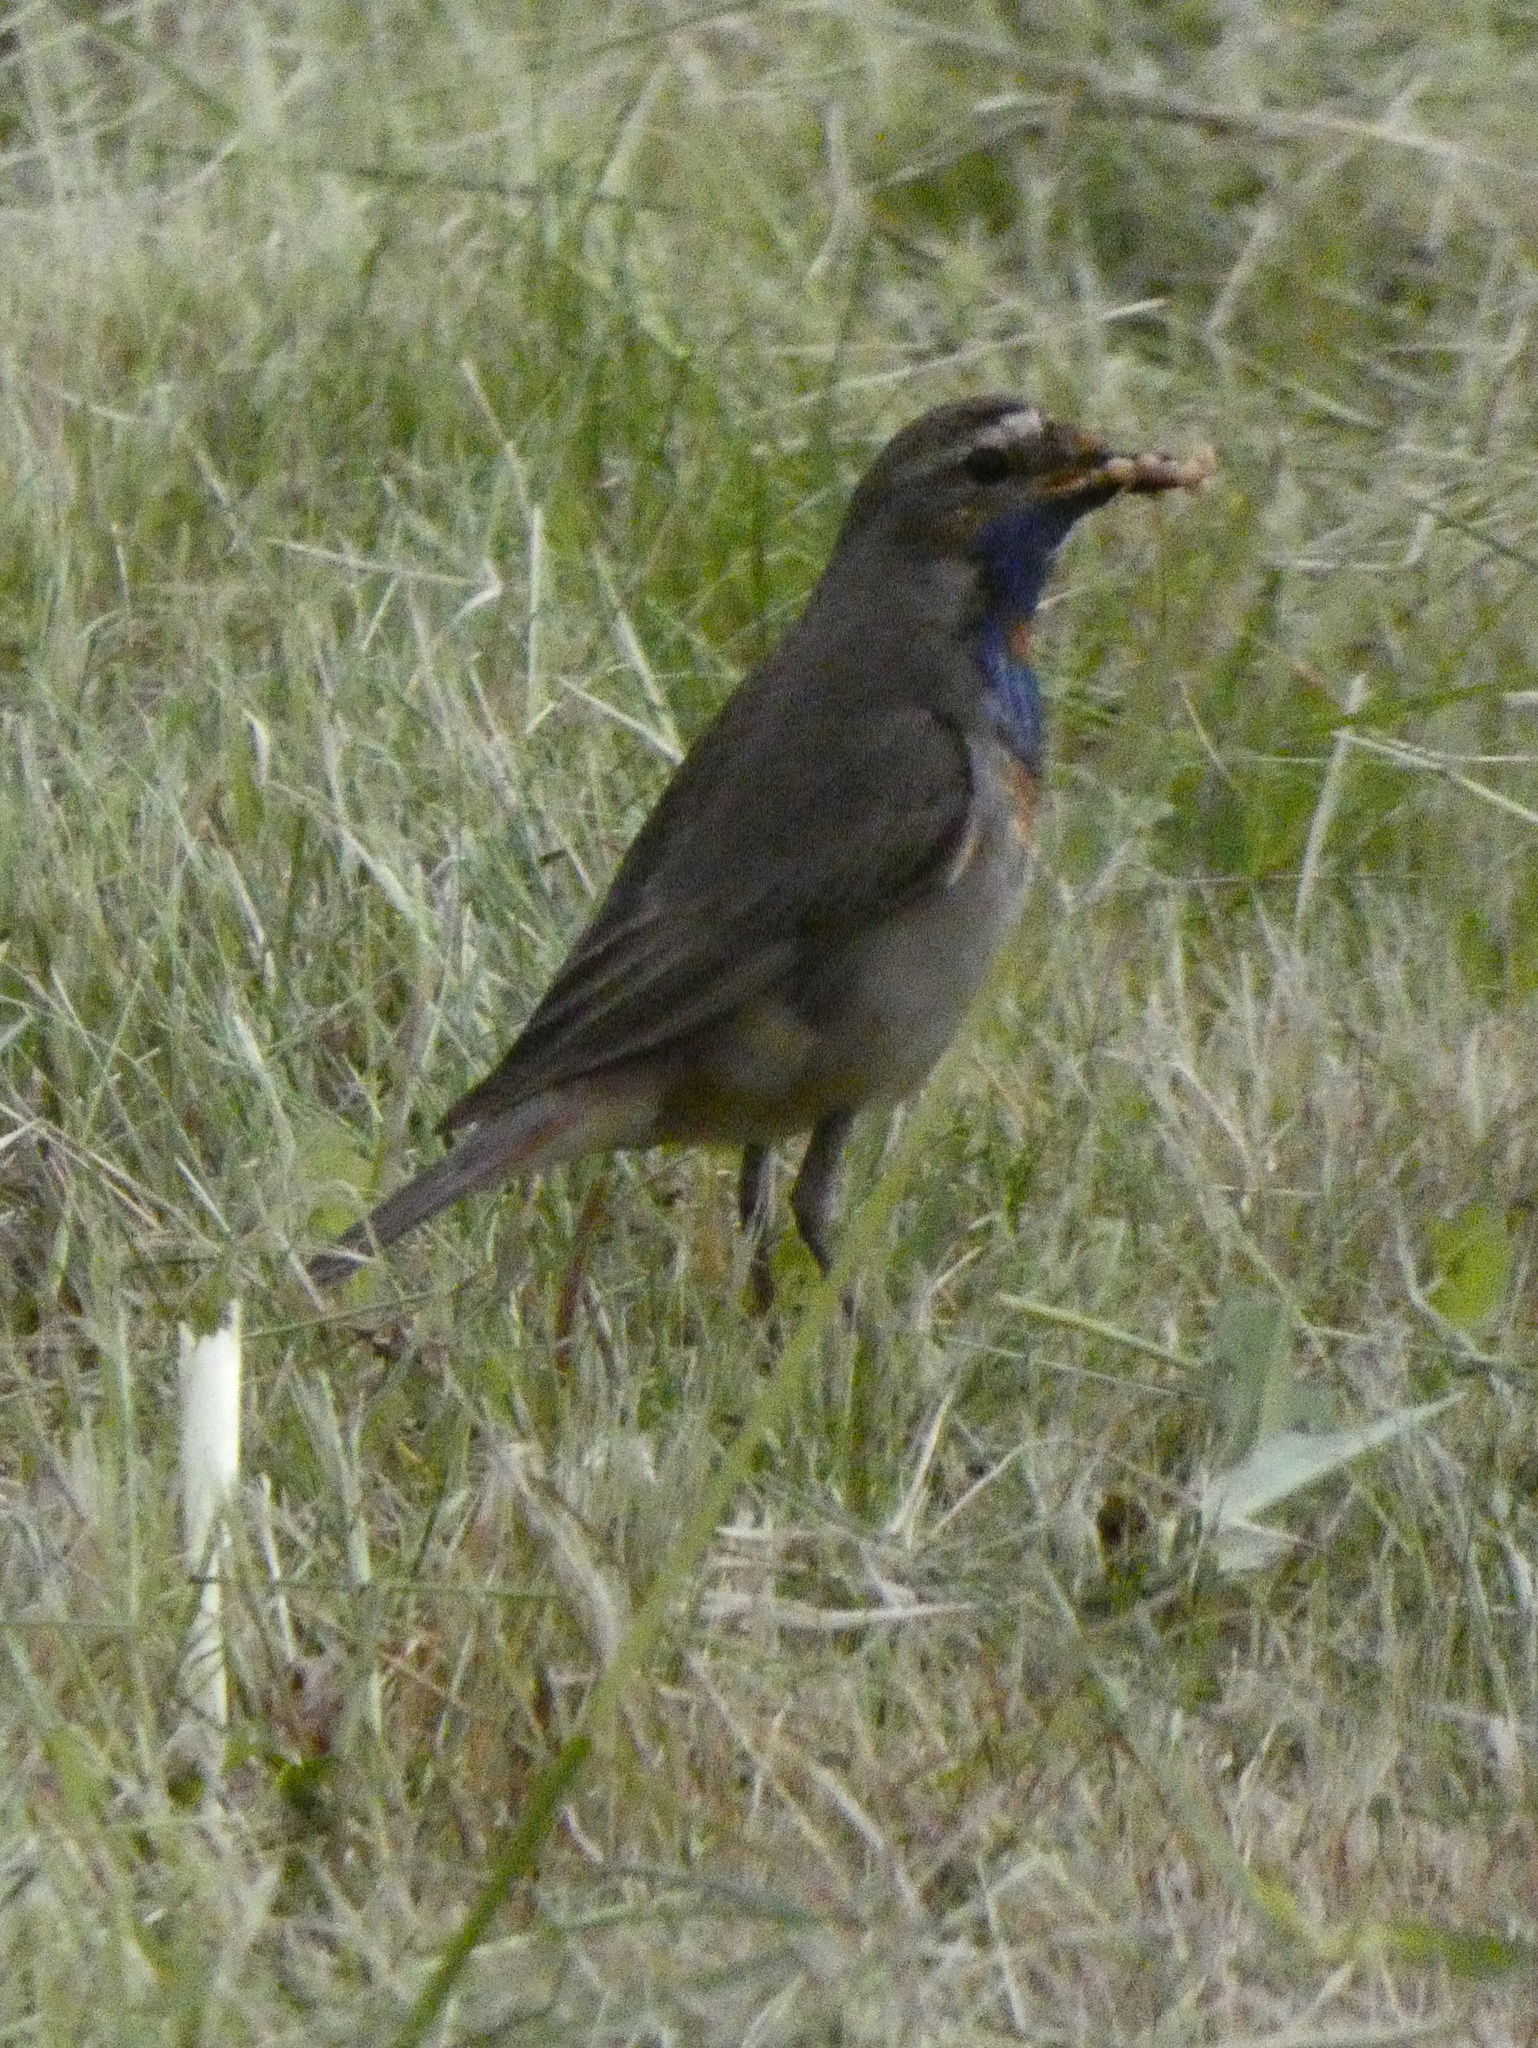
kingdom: Animalia
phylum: Chordata
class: Aves
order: Passeriformes
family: Muscicapidae
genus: Luscinia
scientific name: Luscinia svecica
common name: Bluethroat
